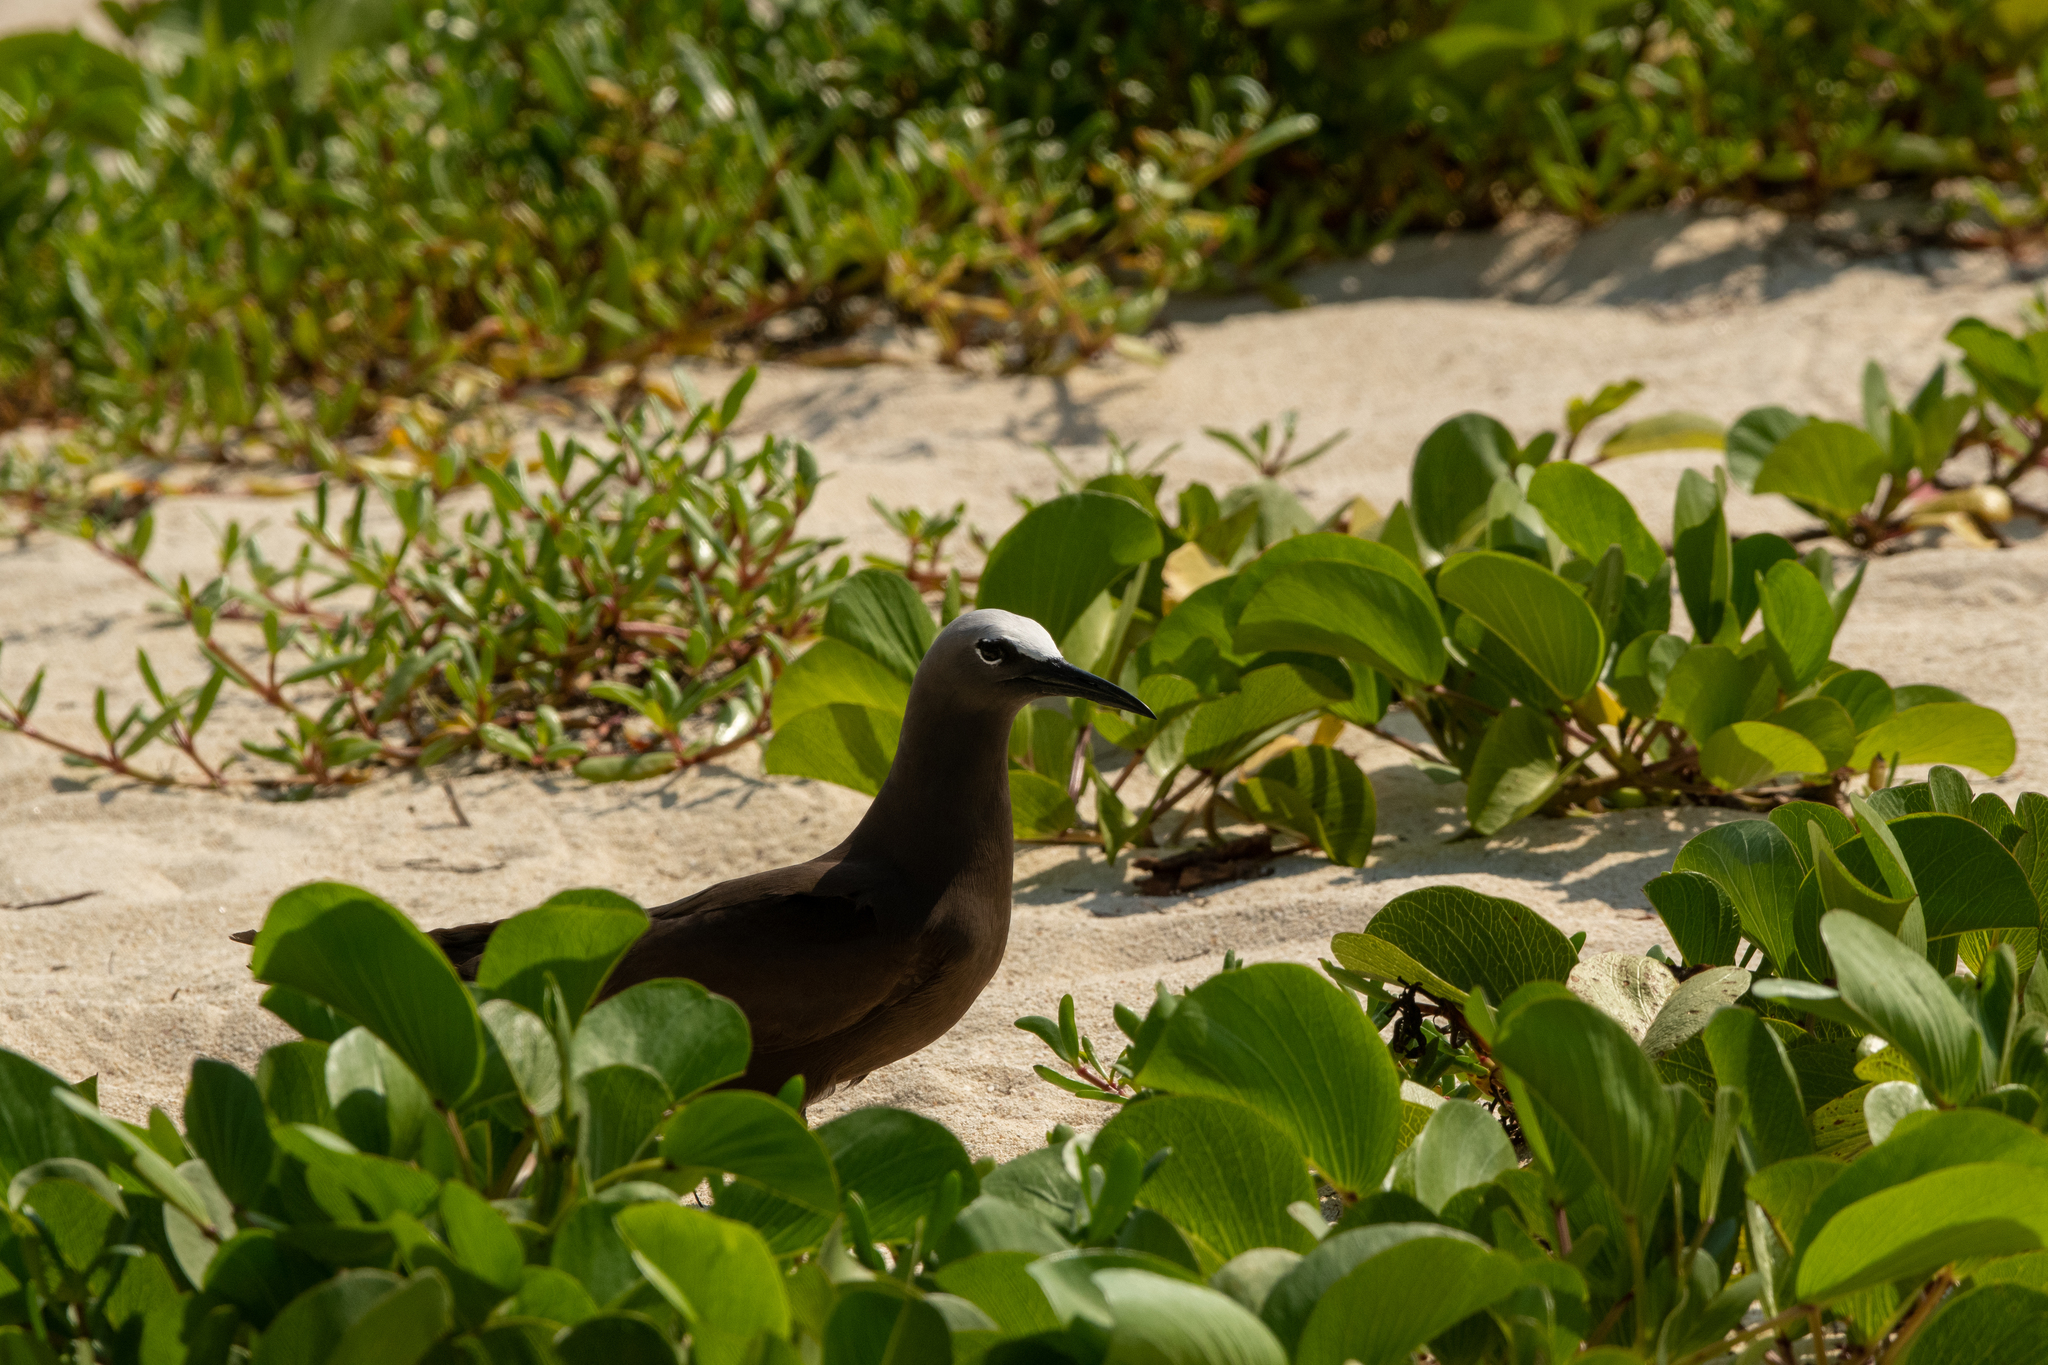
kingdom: Animalia
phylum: Chordata
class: Aves
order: Charadriiformes
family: Laridae
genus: Anous
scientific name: Anous stolidus
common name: Brown noddy
